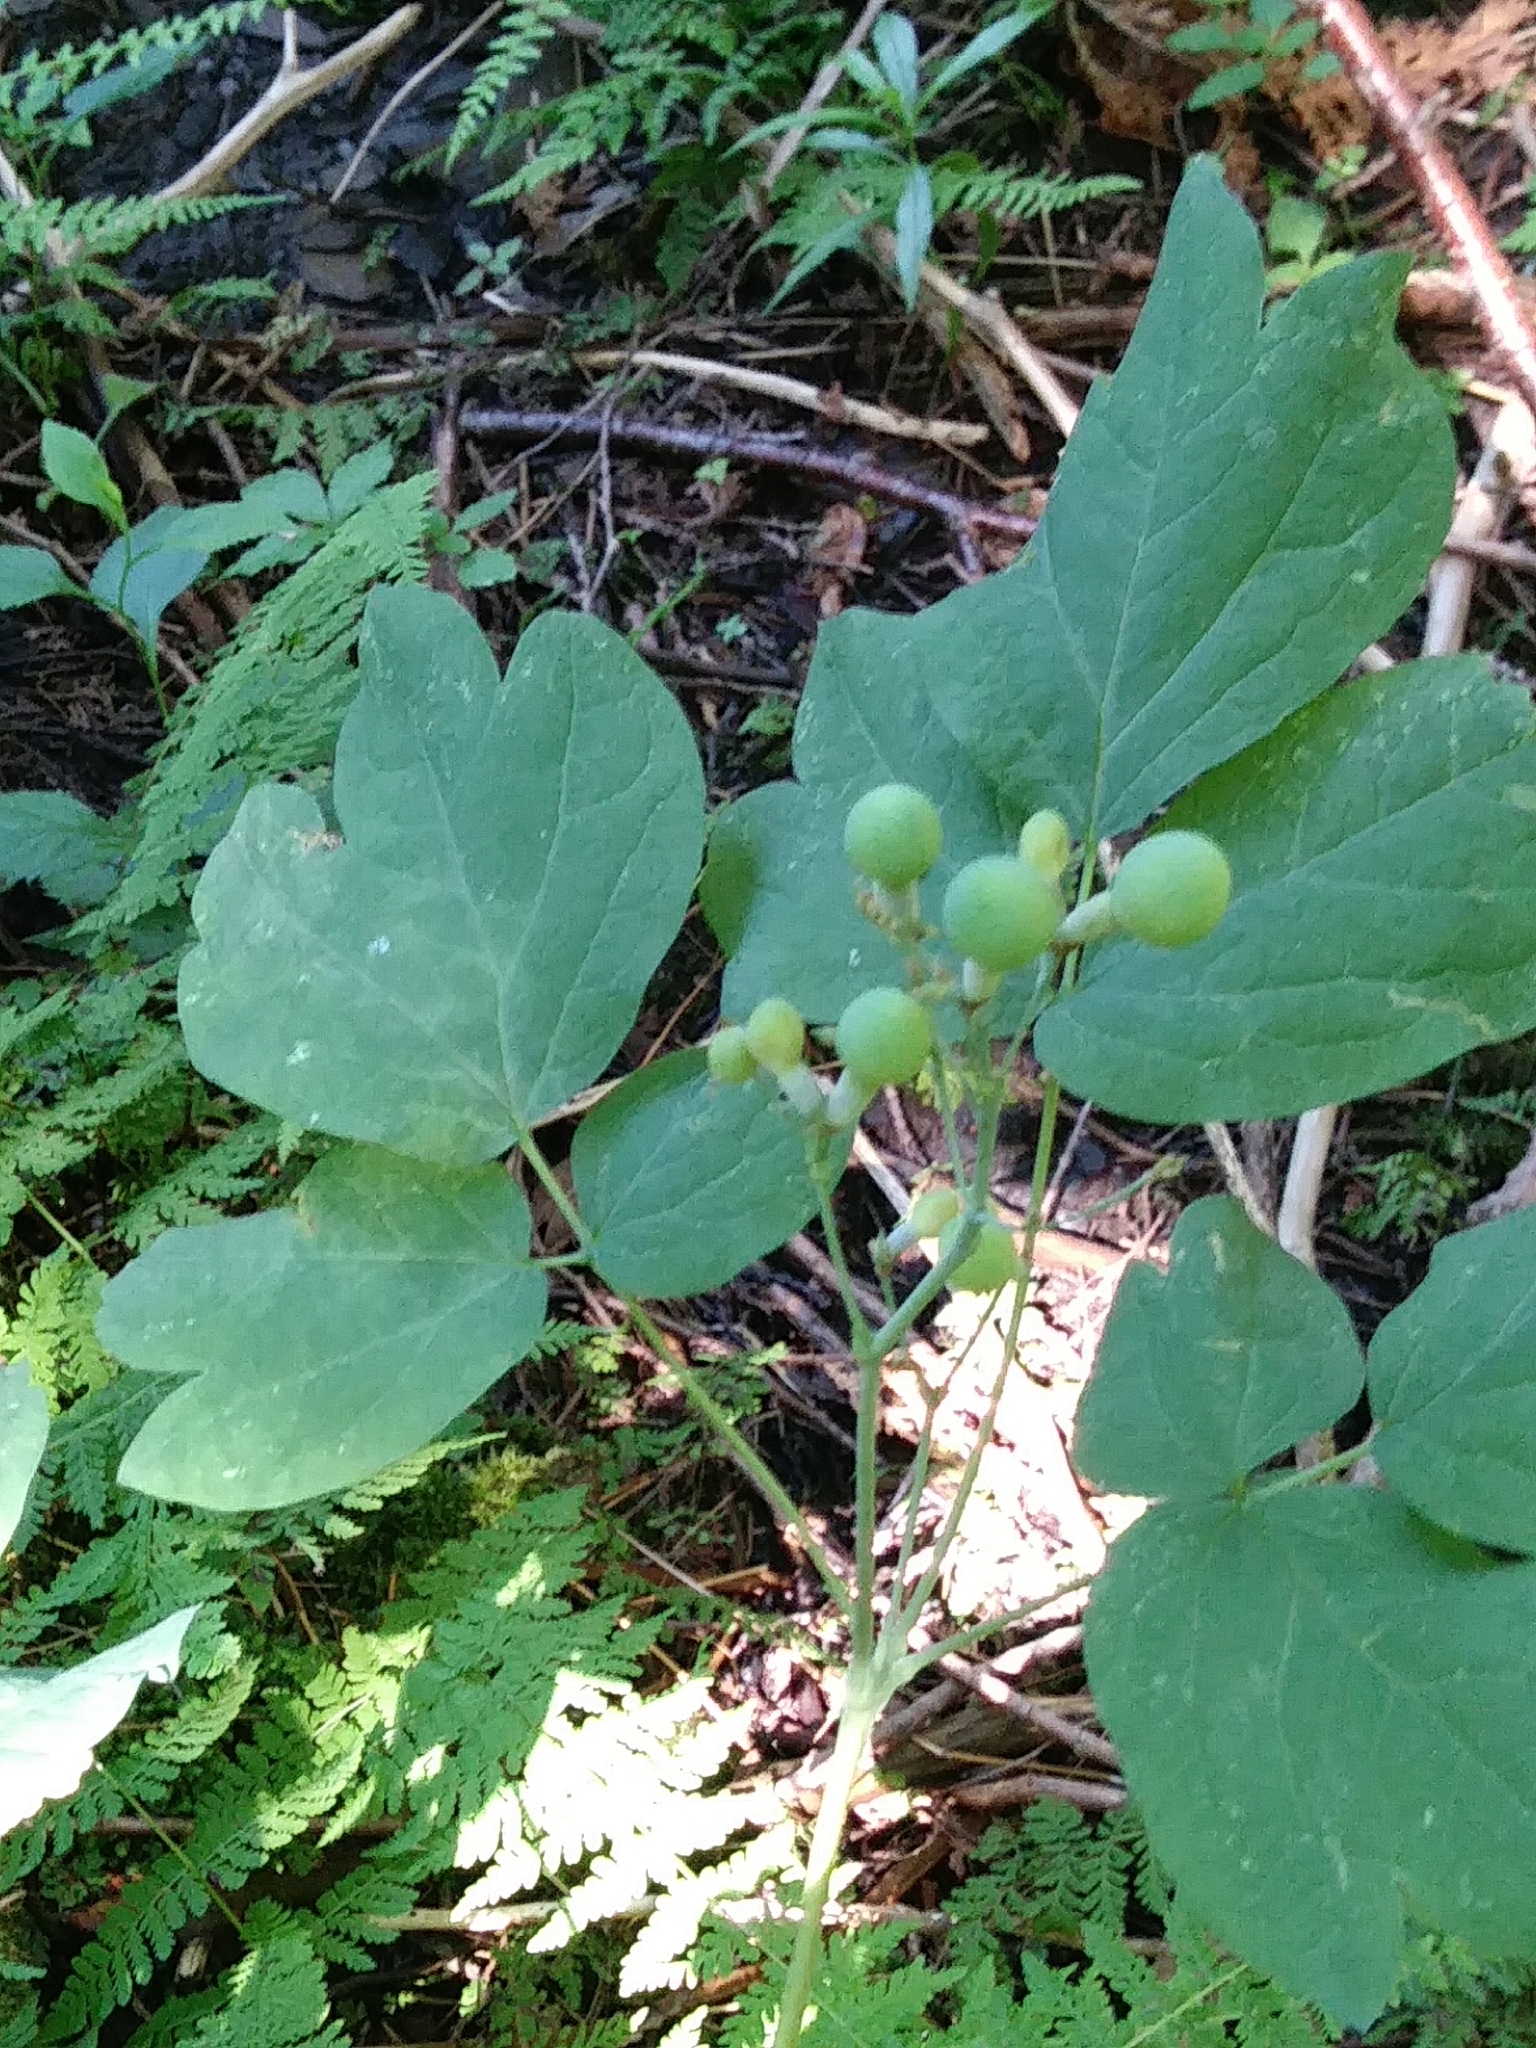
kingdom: Plantae
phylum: Tracheophyta
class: Magnoliopsida
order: Ranunculales
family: Berberidaceae
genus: Caulophyllum
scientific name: Caulophyllum thalictroides
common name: Blue cohosh
